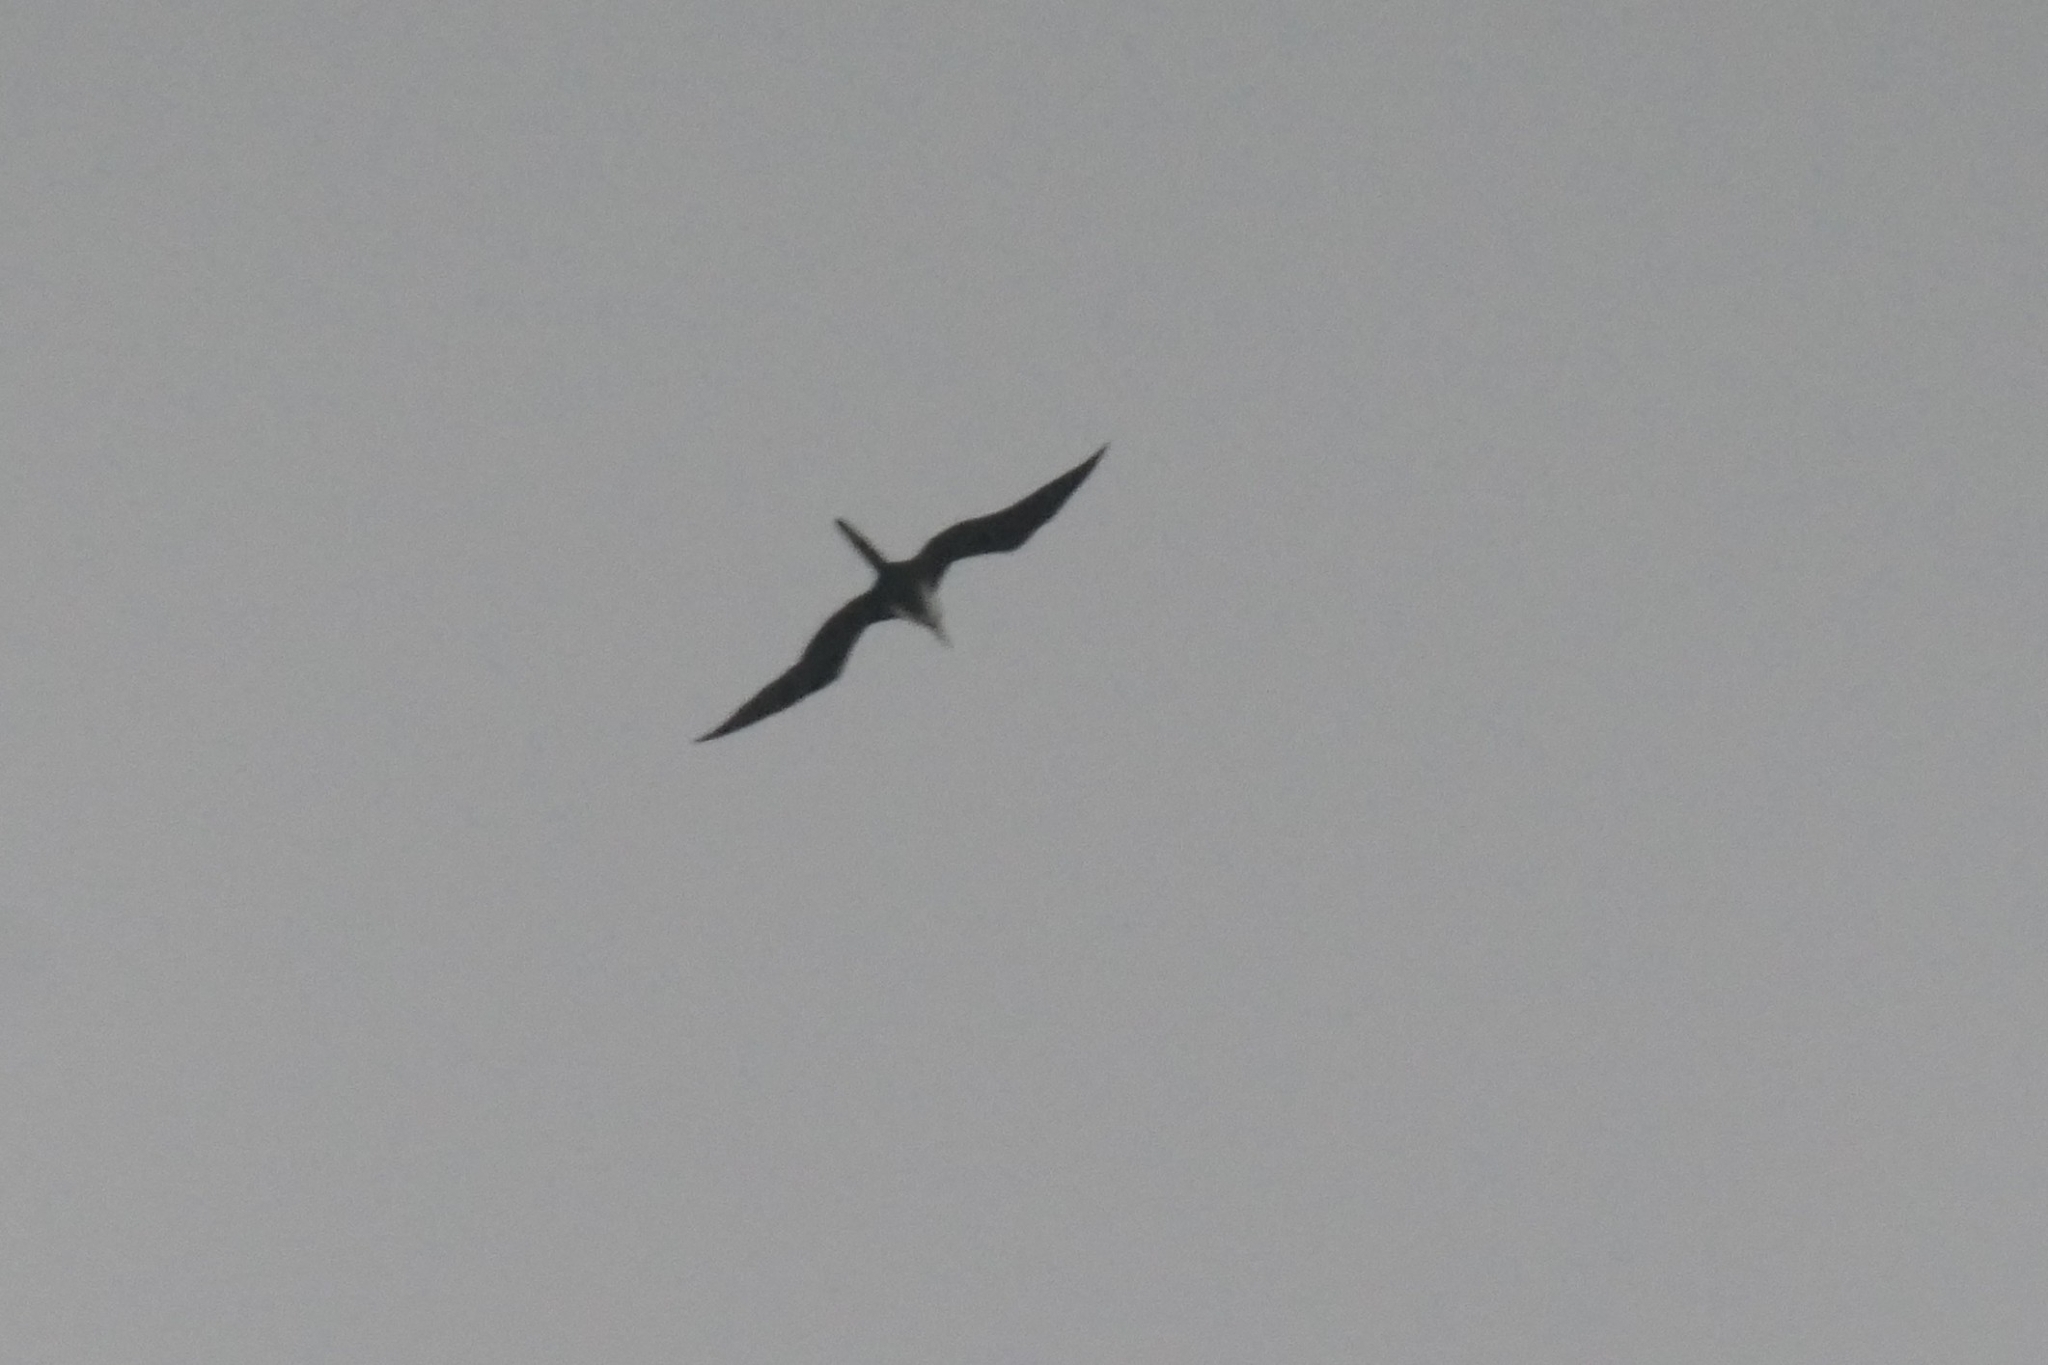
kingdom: Animalia
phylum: Chordata
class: Aves
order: Suliformes
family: Fregatidae
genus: Fregata
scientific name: Fregata magnificens
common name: Magnificent frigatebird
